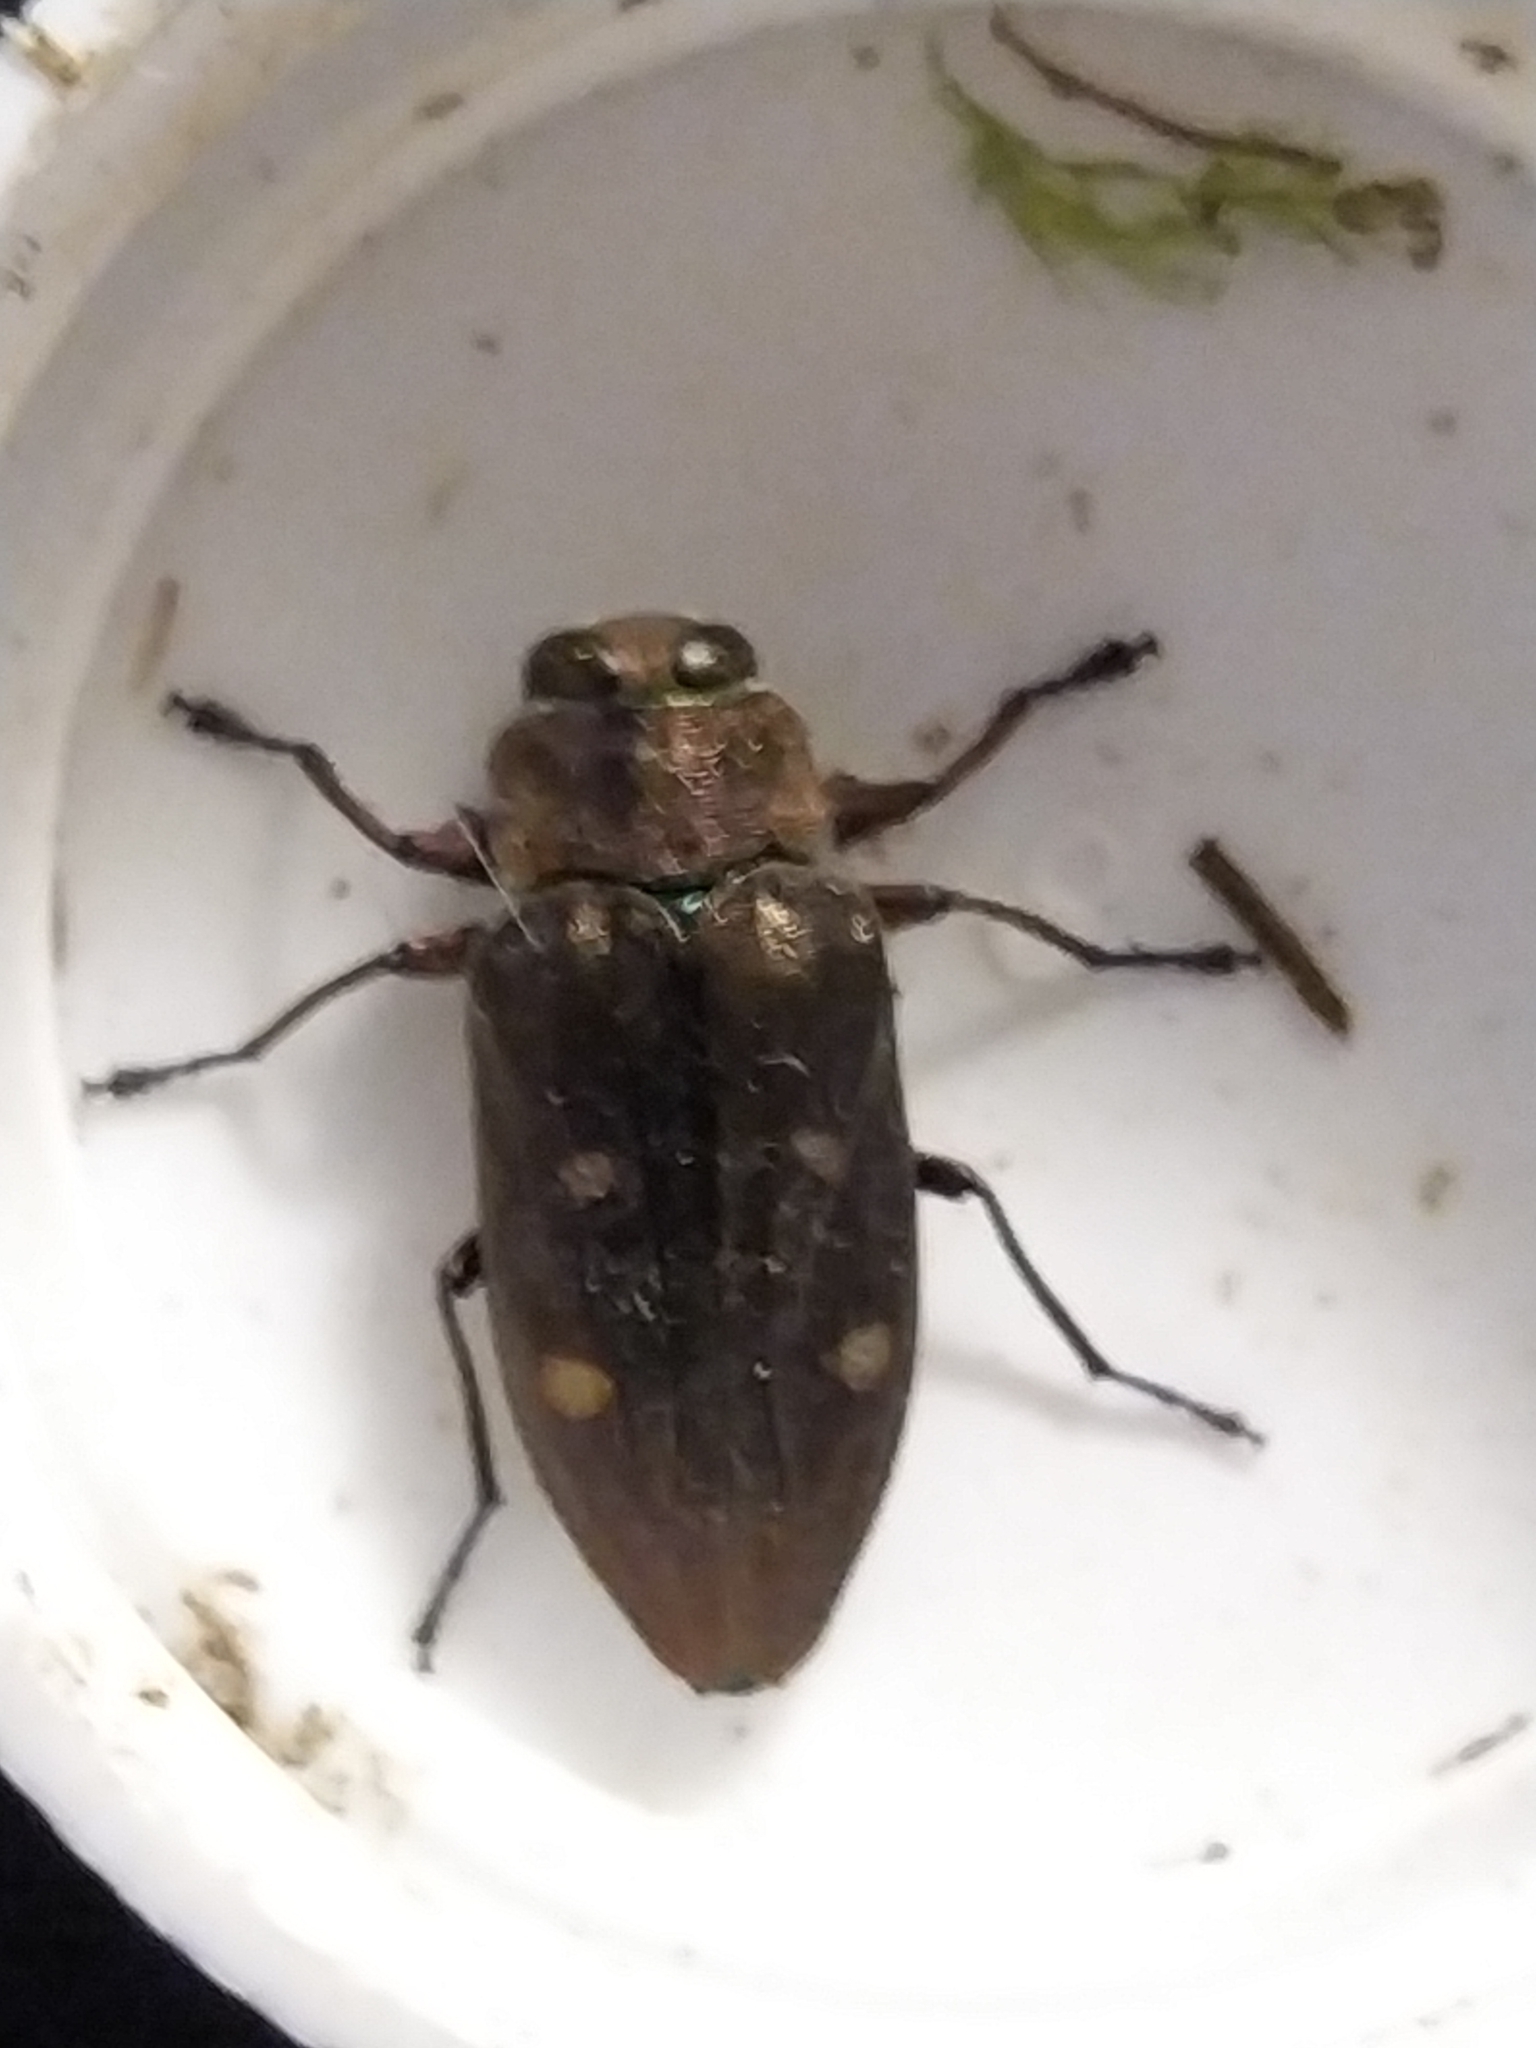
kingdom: Animalia
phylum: Arthropoda
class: Insecta
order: Coleoptera
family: Buprestidae
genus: Chrysobothris
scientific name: Chrysobothris affinis
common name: Beetle
